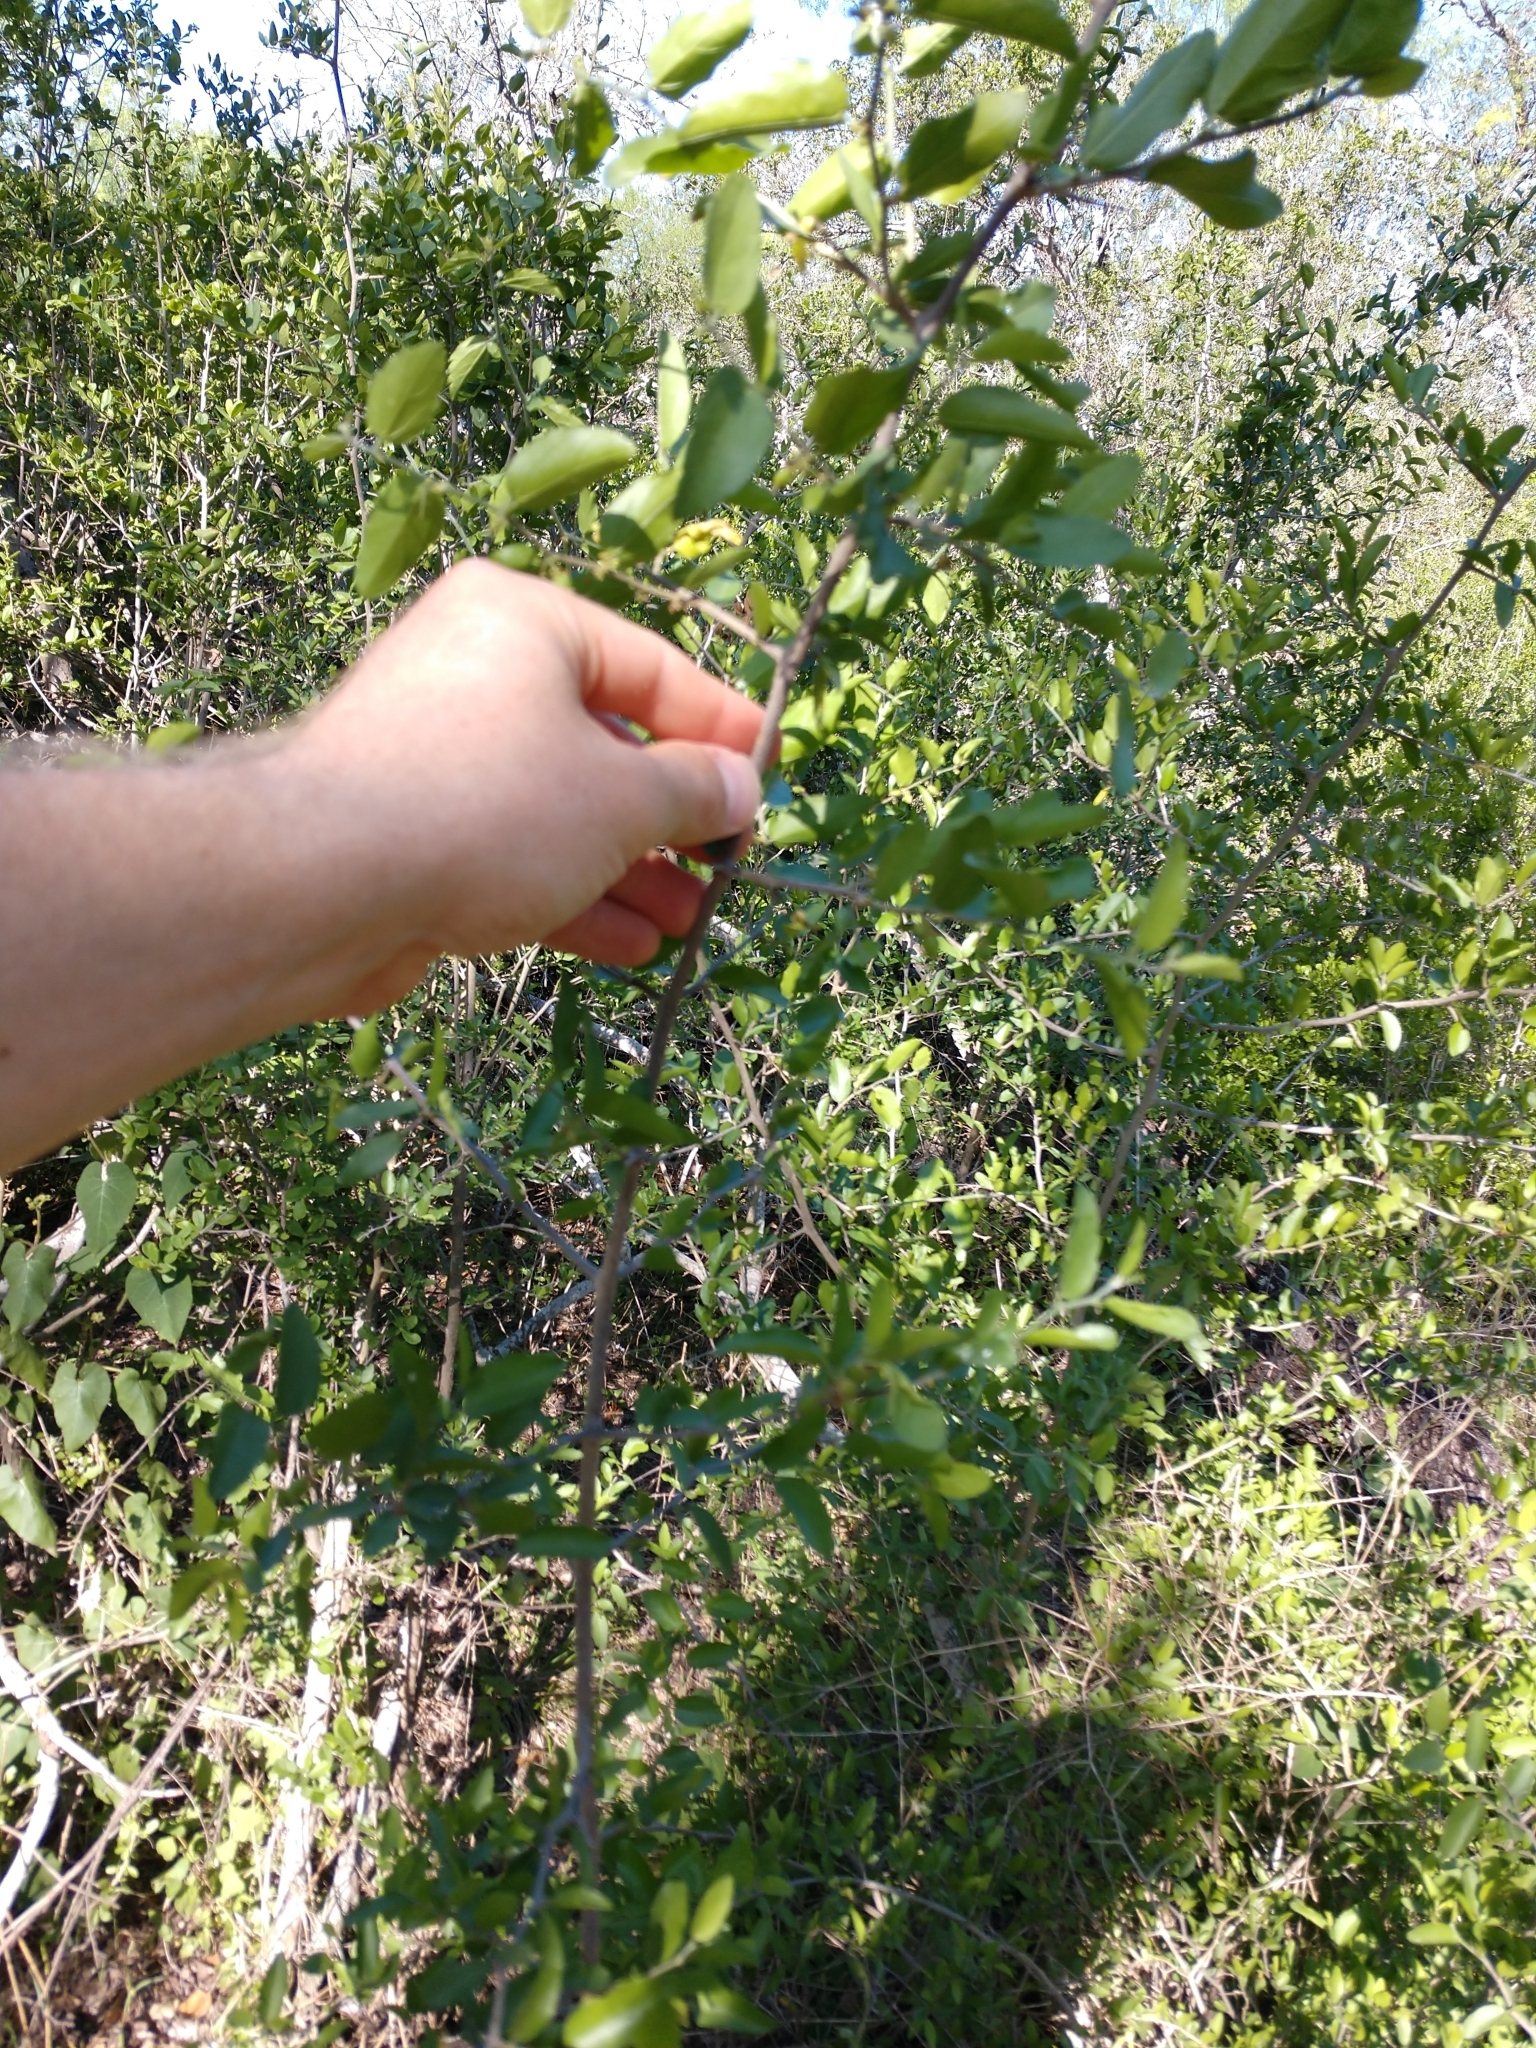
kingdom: Plantae
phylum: Tracheophyta
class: Magnoliopsida
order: Rosales
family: Cannabaceae
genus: Celtis
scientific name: Celtis pallida
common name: Desert hackberry
